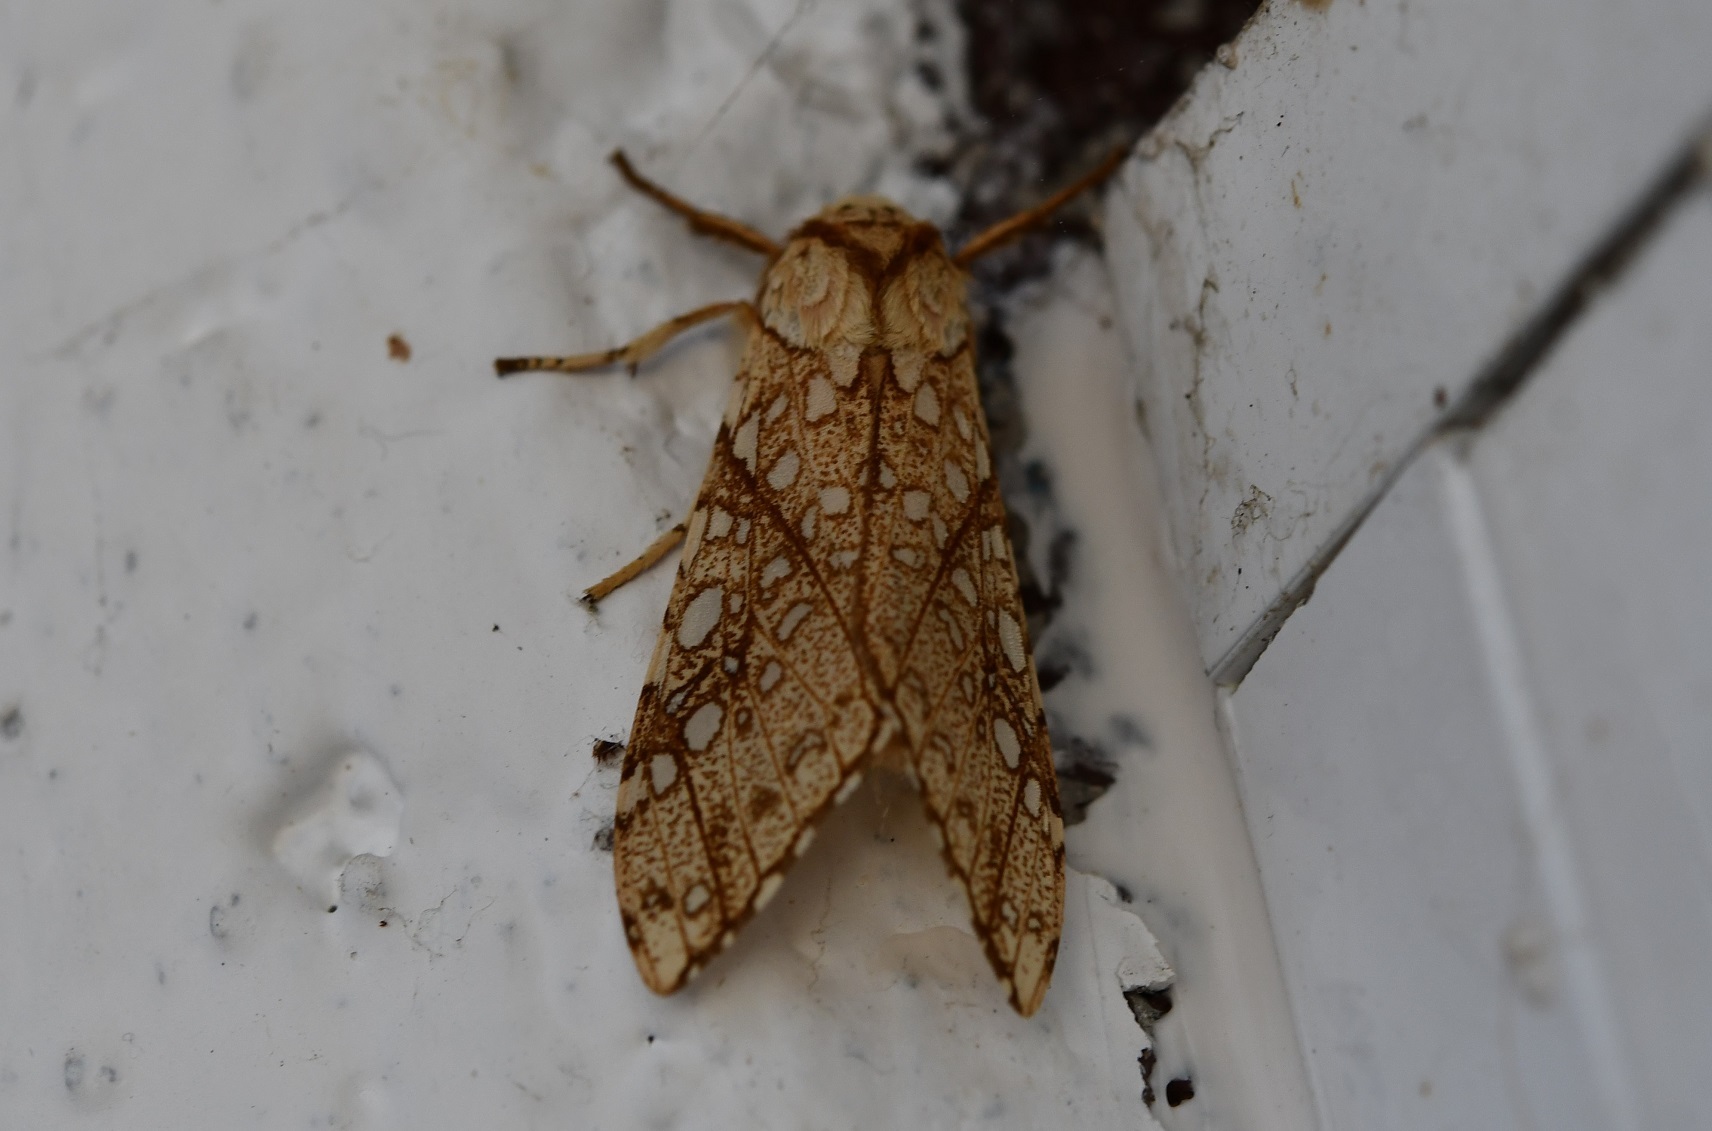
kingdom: Animalia
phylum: Arthropoda
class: Insecta
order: Lepidoptera
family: Erebidae
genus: Lophocampa
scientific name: Lophocampa propinqua
